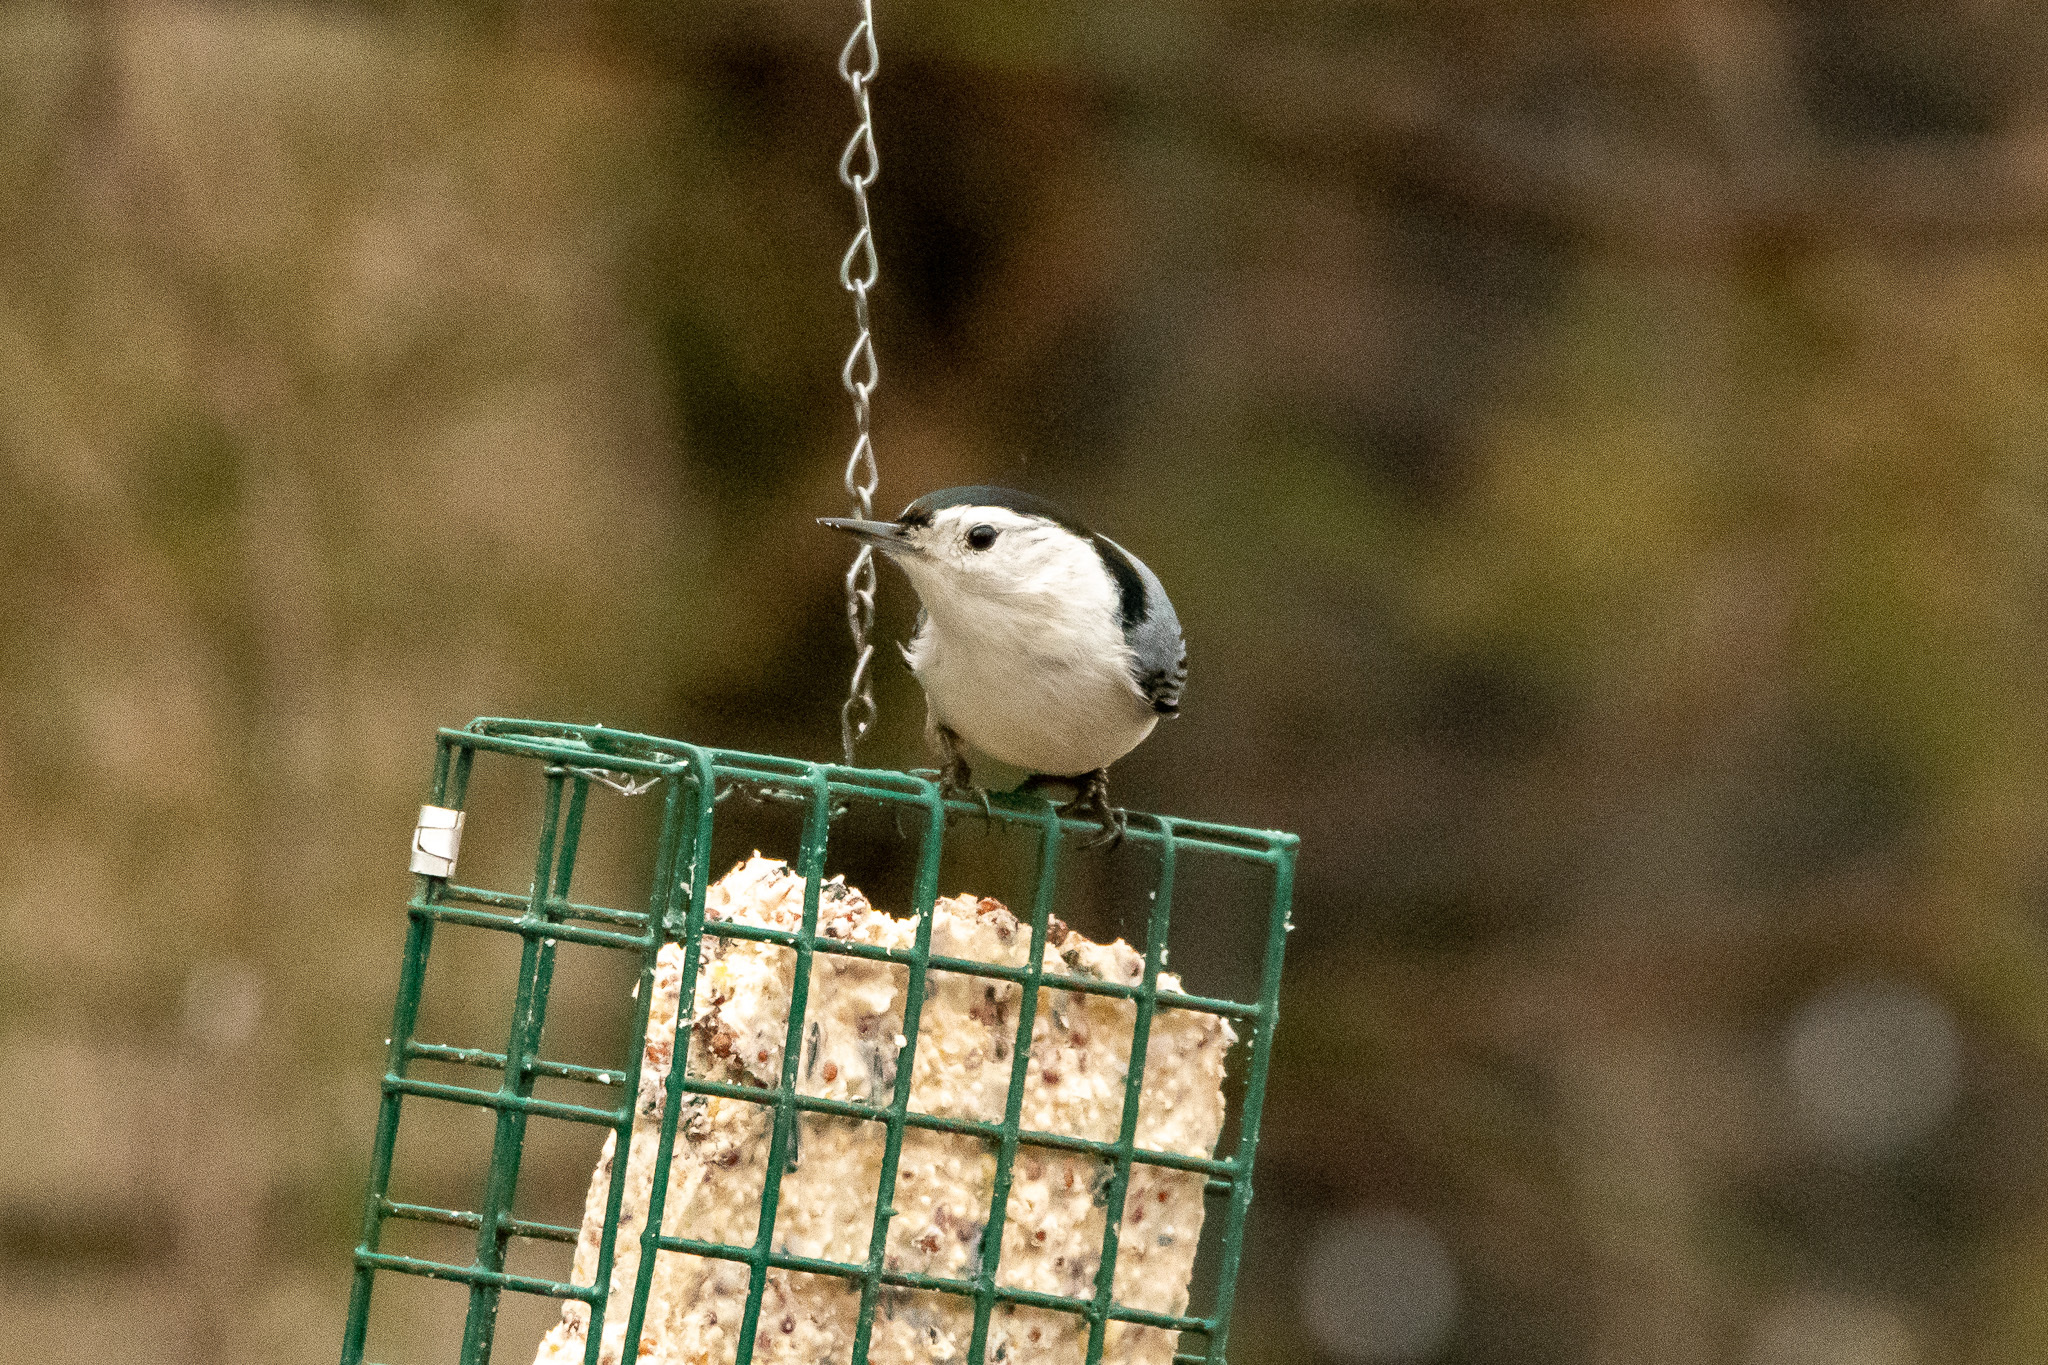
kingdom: Animalia
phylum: Chordata
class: Aves
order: Passeriformes
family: Sittidae
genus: Sitta
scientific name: Sitta carolinensis
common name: White-breasted nuthatch
